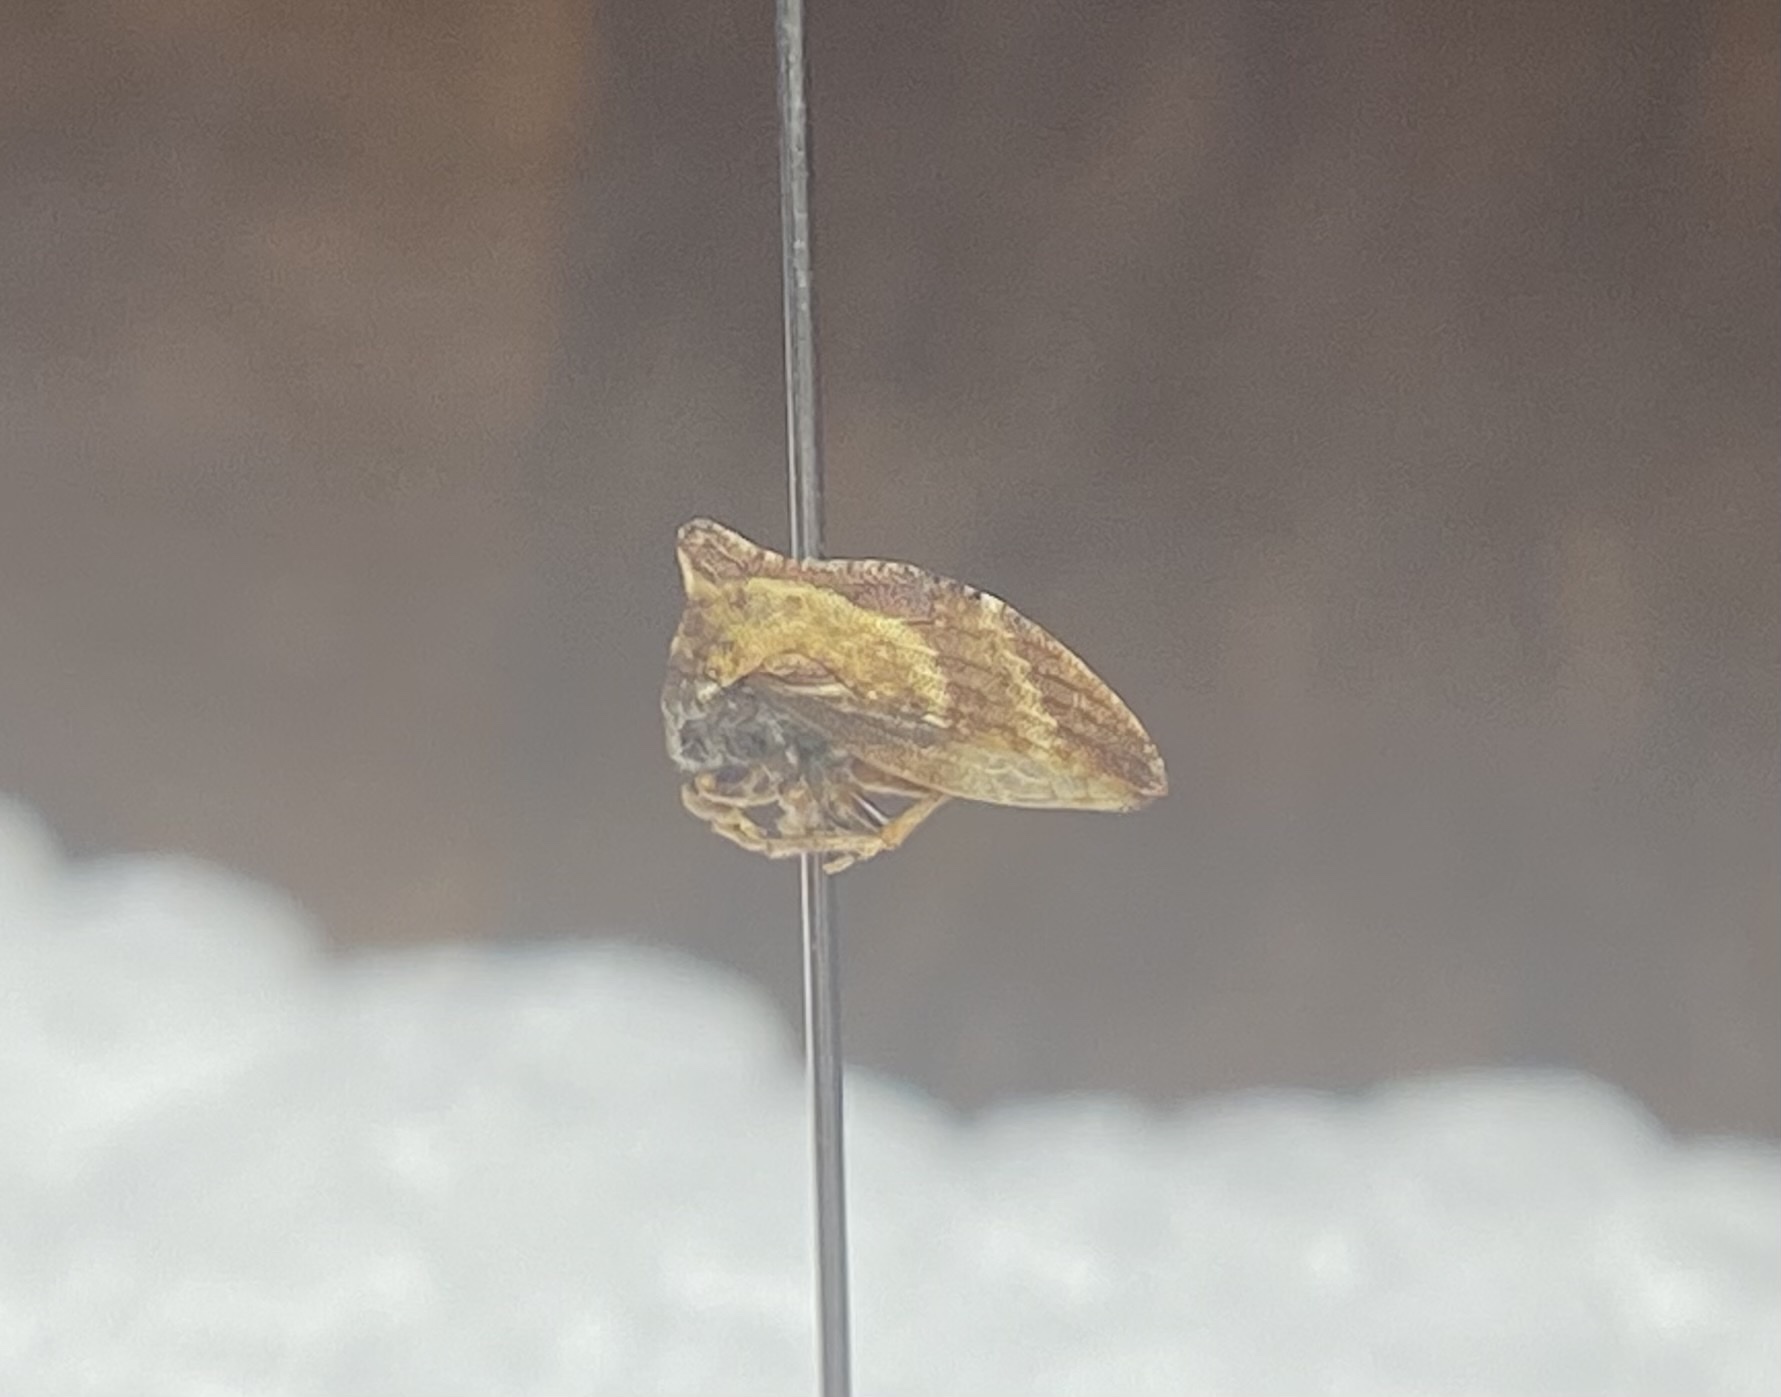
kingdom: Animalia
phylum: Arthropoda
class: Insecta
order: Hemiptera
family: Membracidae
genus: Publilia
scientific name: Publilia porrecta
